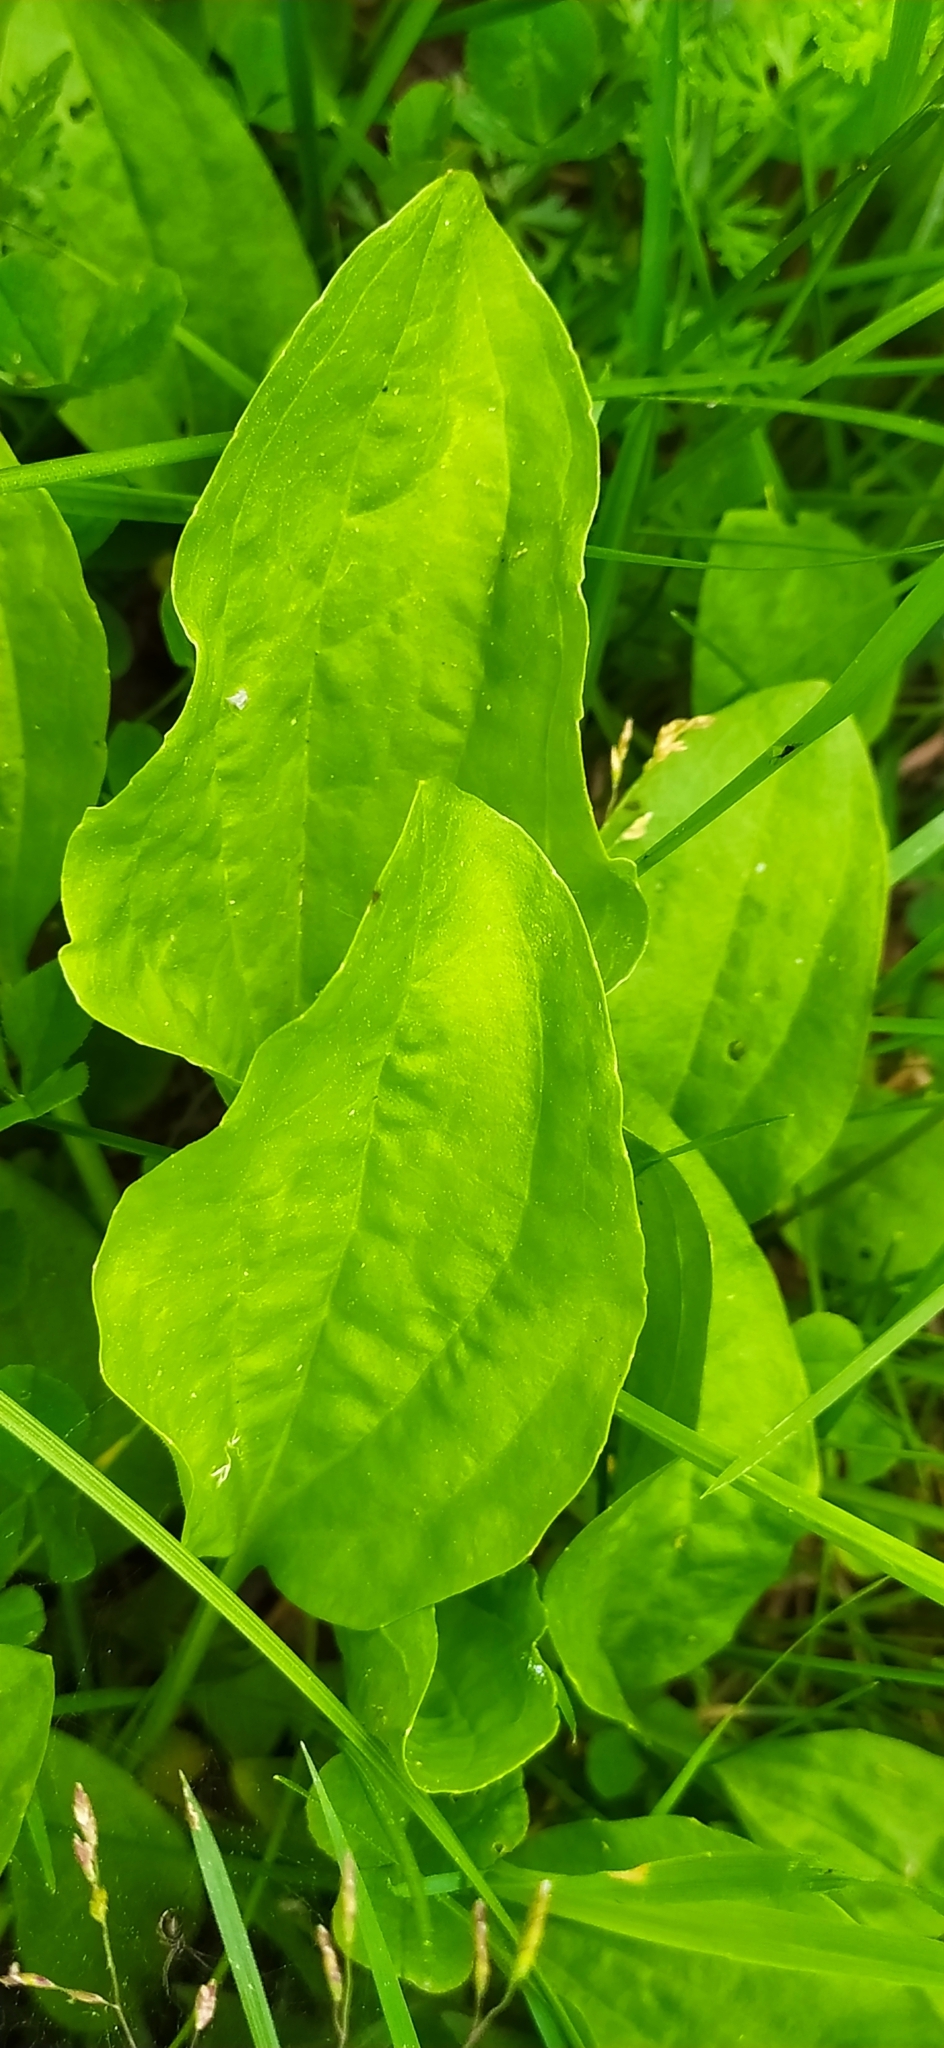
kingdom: Plantae
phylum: Tracheophyta
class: Magnoliopsida
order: Lamiales
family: Plantaginaceae
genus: Plantago
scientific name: Plantago major
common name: Common plantain
